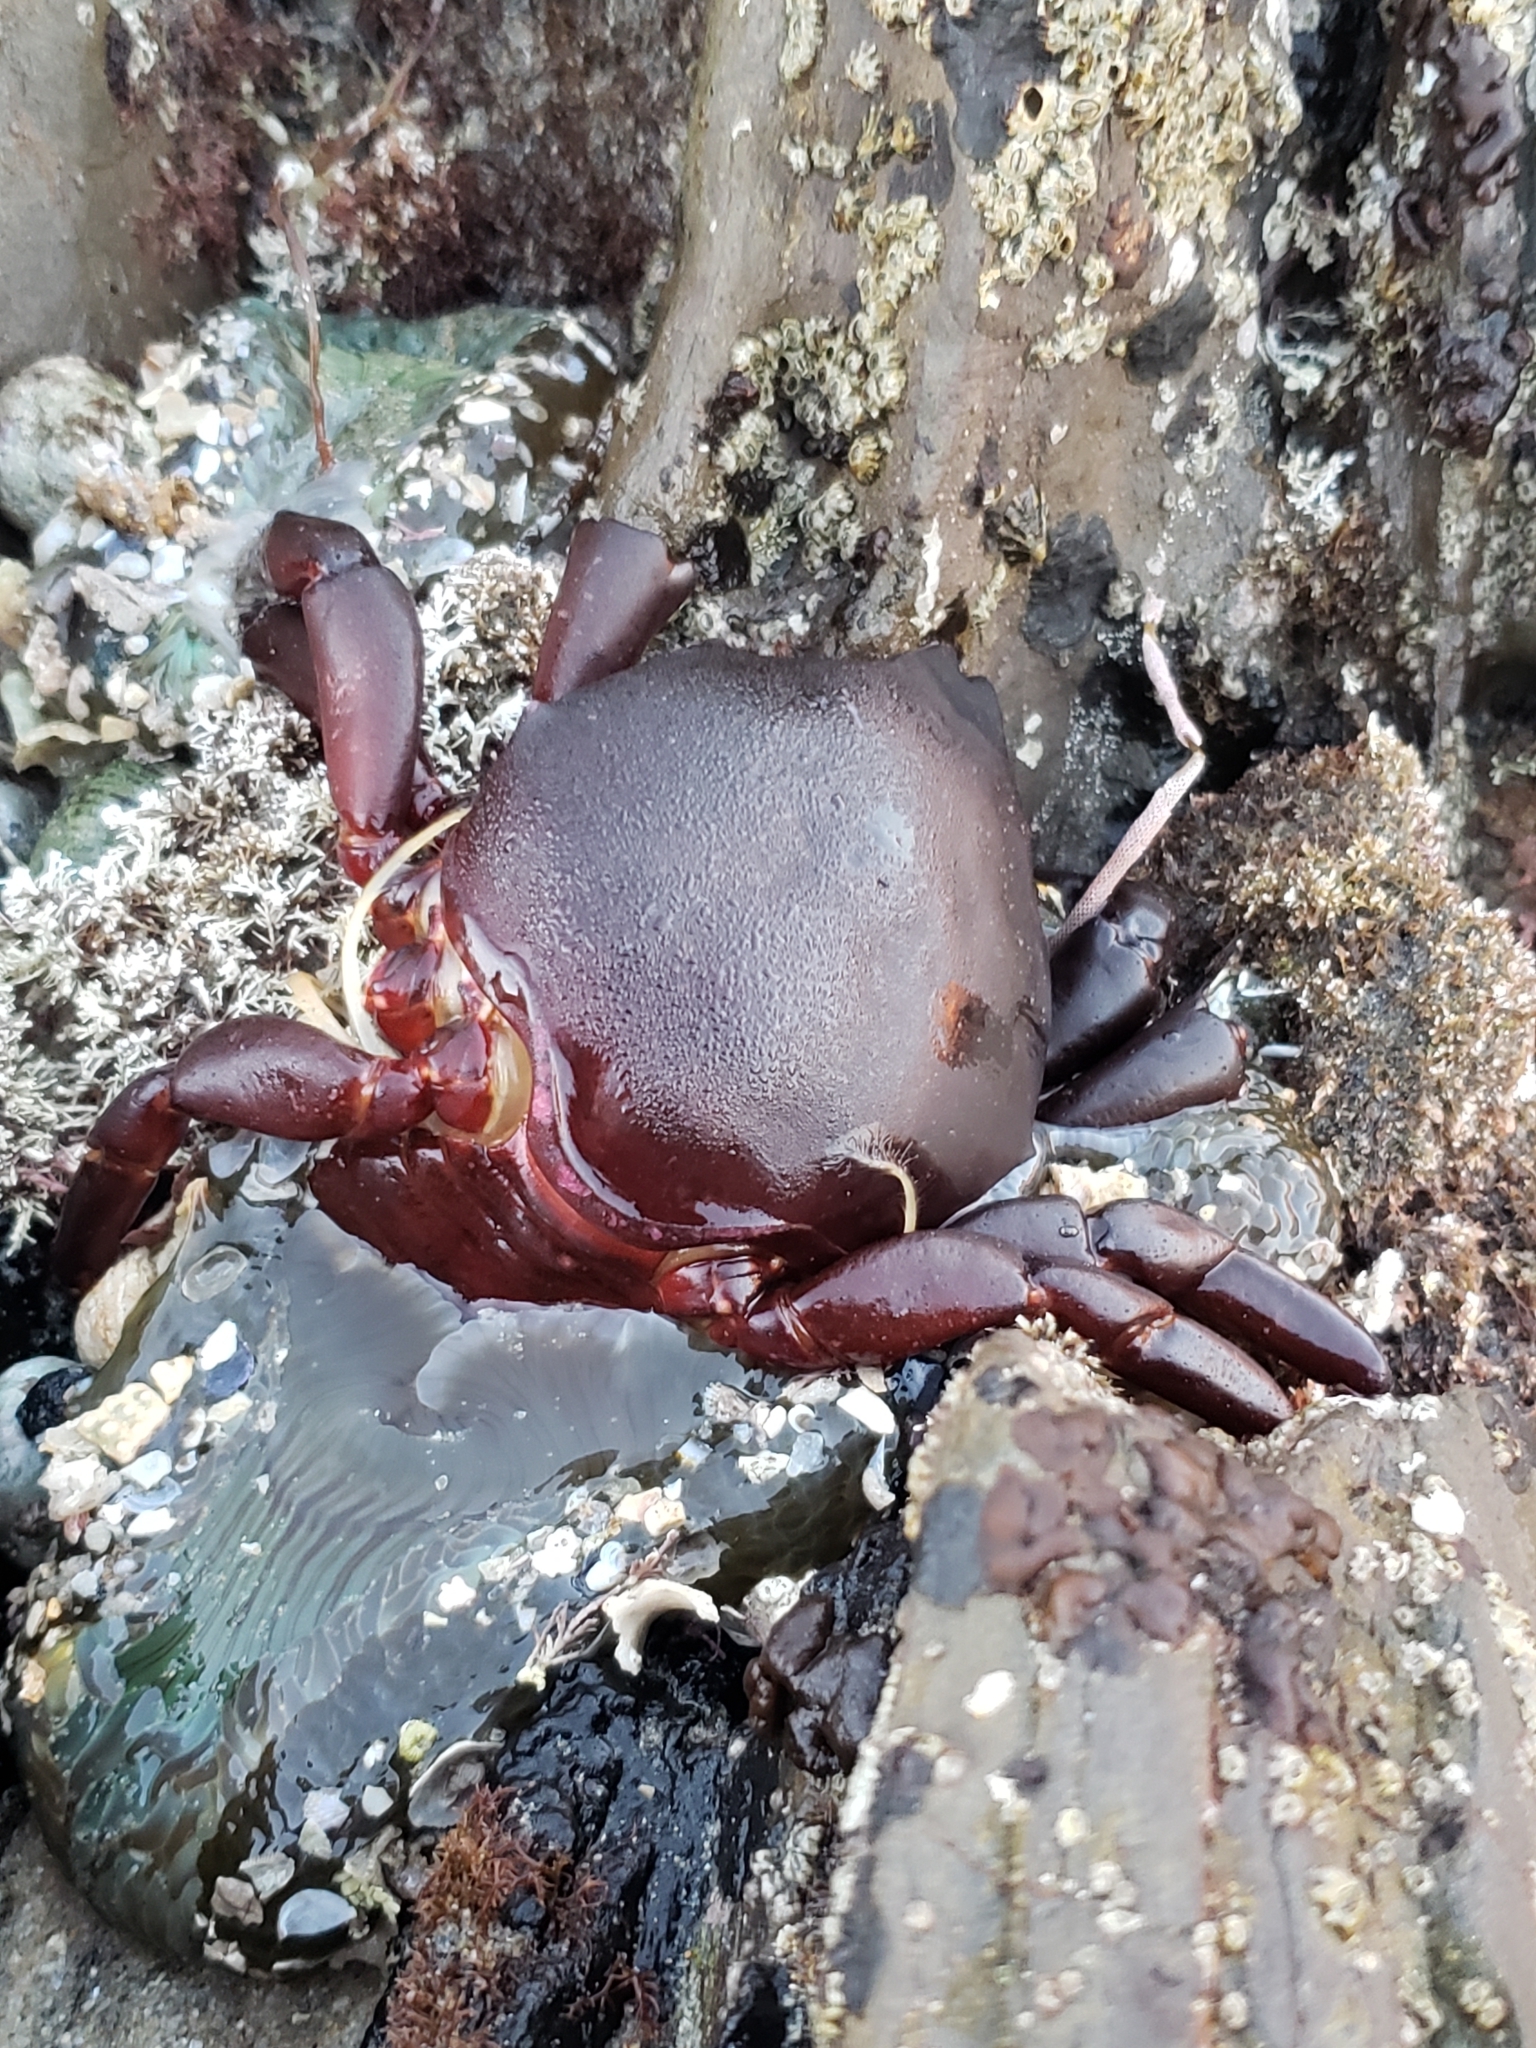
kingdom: Animalia
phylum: Arthropoda
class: Malacostraca
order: Decapoda
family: Epialtidae
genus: Taliepus
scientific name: Taliepus nuttallii
